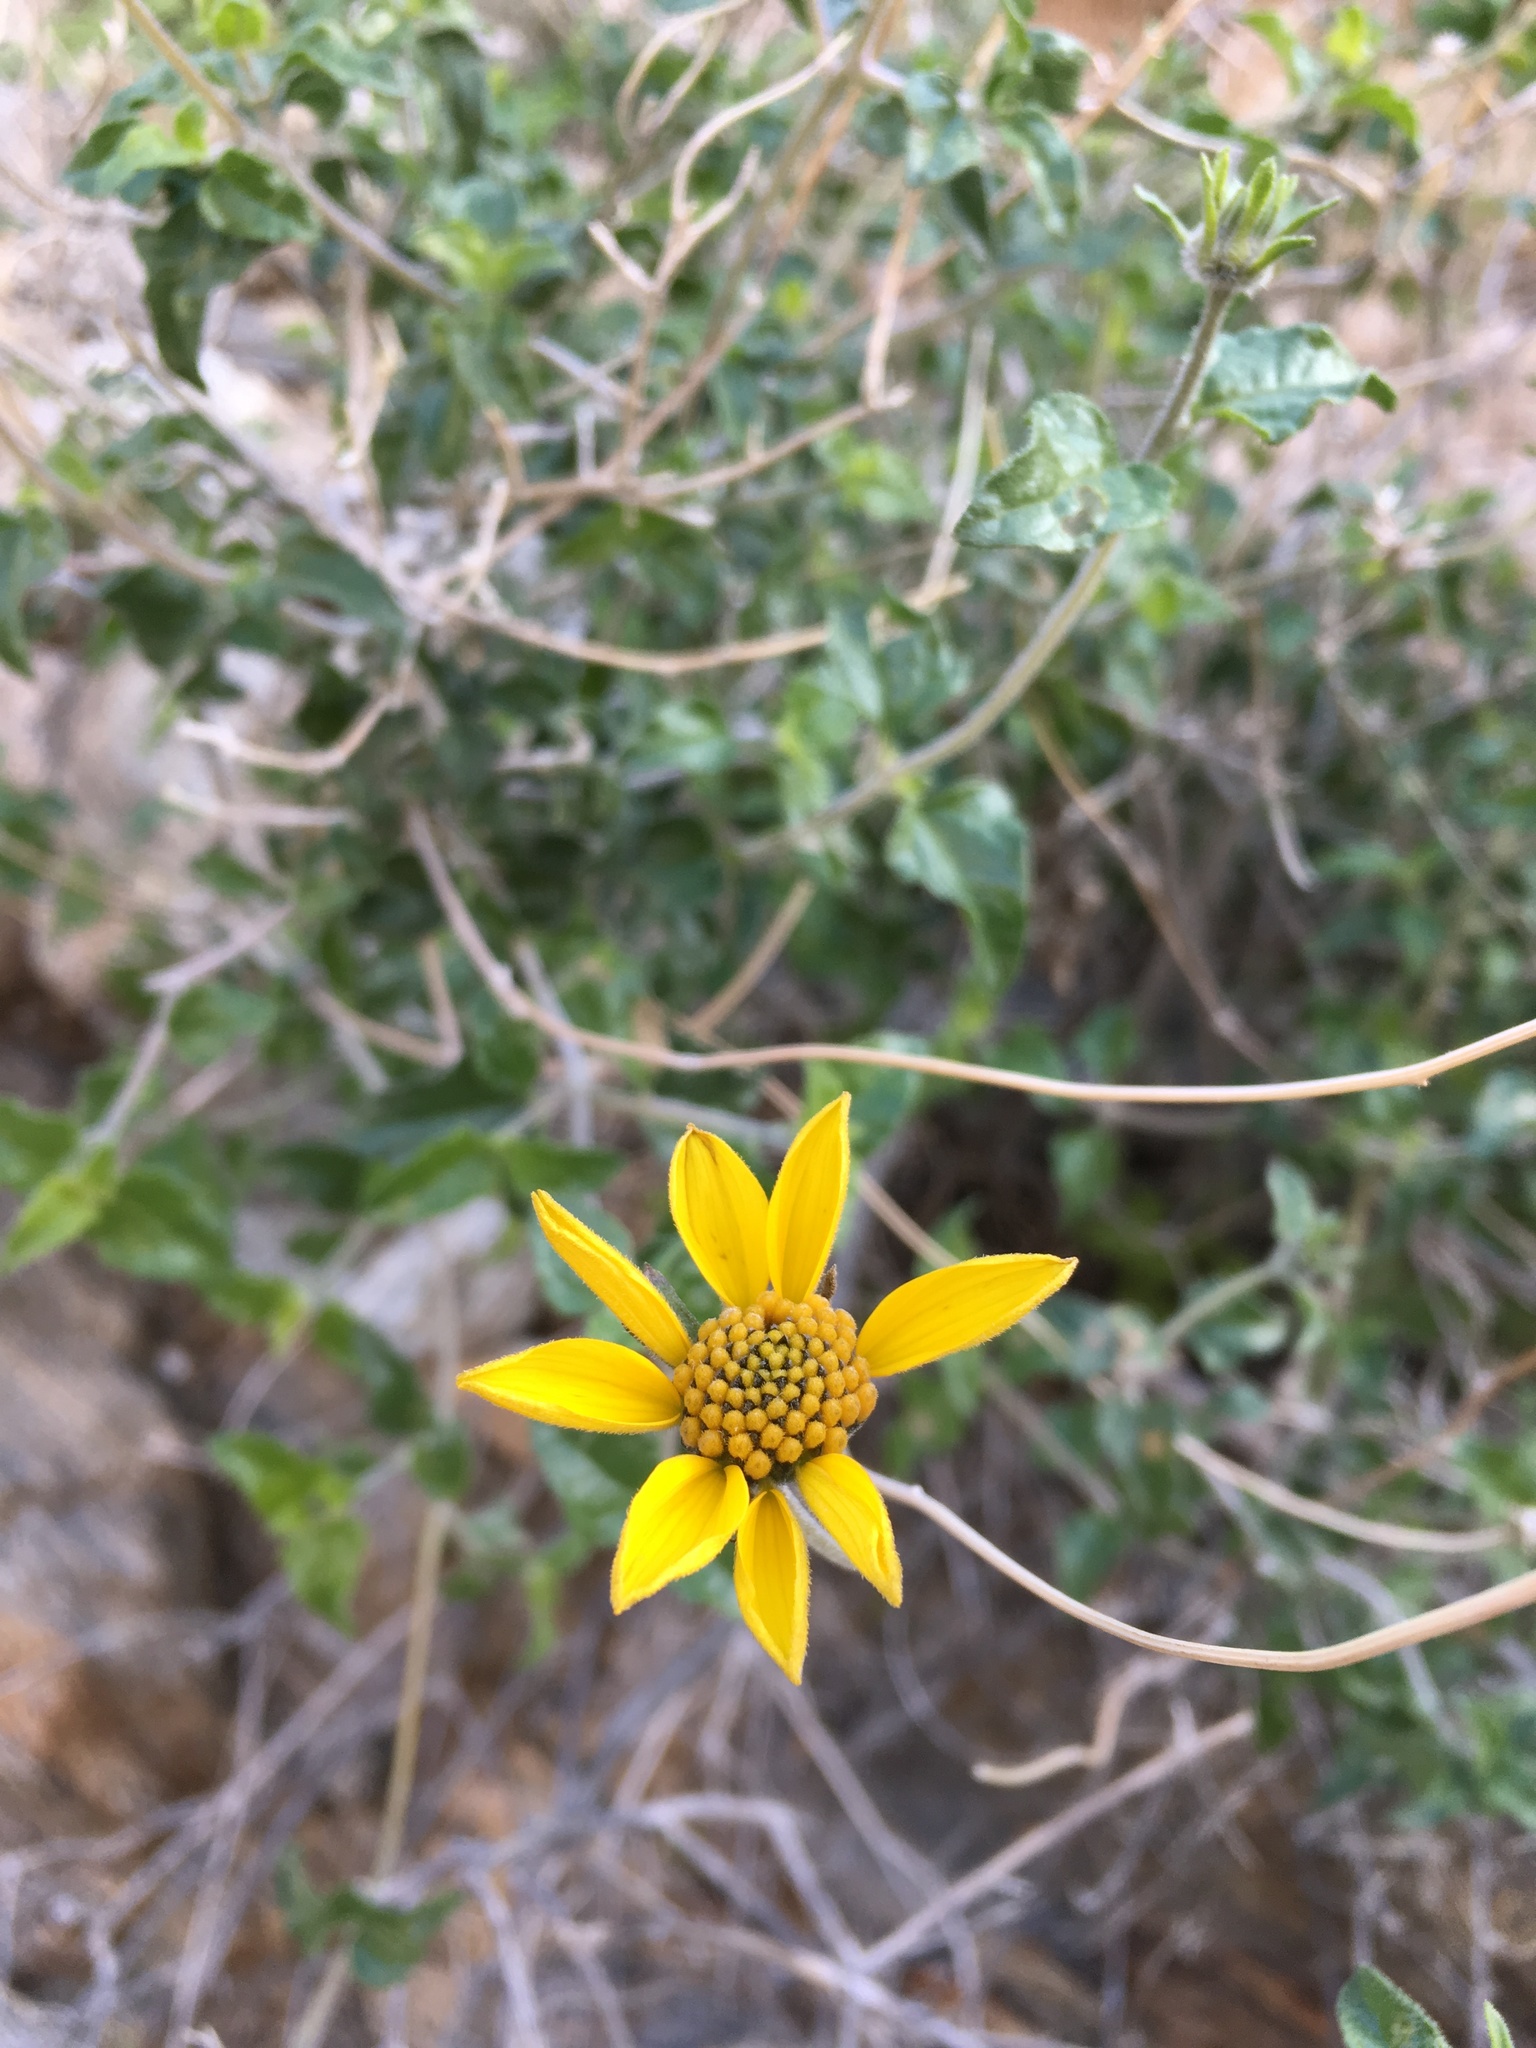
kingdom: Plantae
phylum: Tracheophyta
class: Magnoliopsida
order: Asterales
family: Asteraceae
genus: Bahiopsis
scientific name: Bahiopsis parishii
